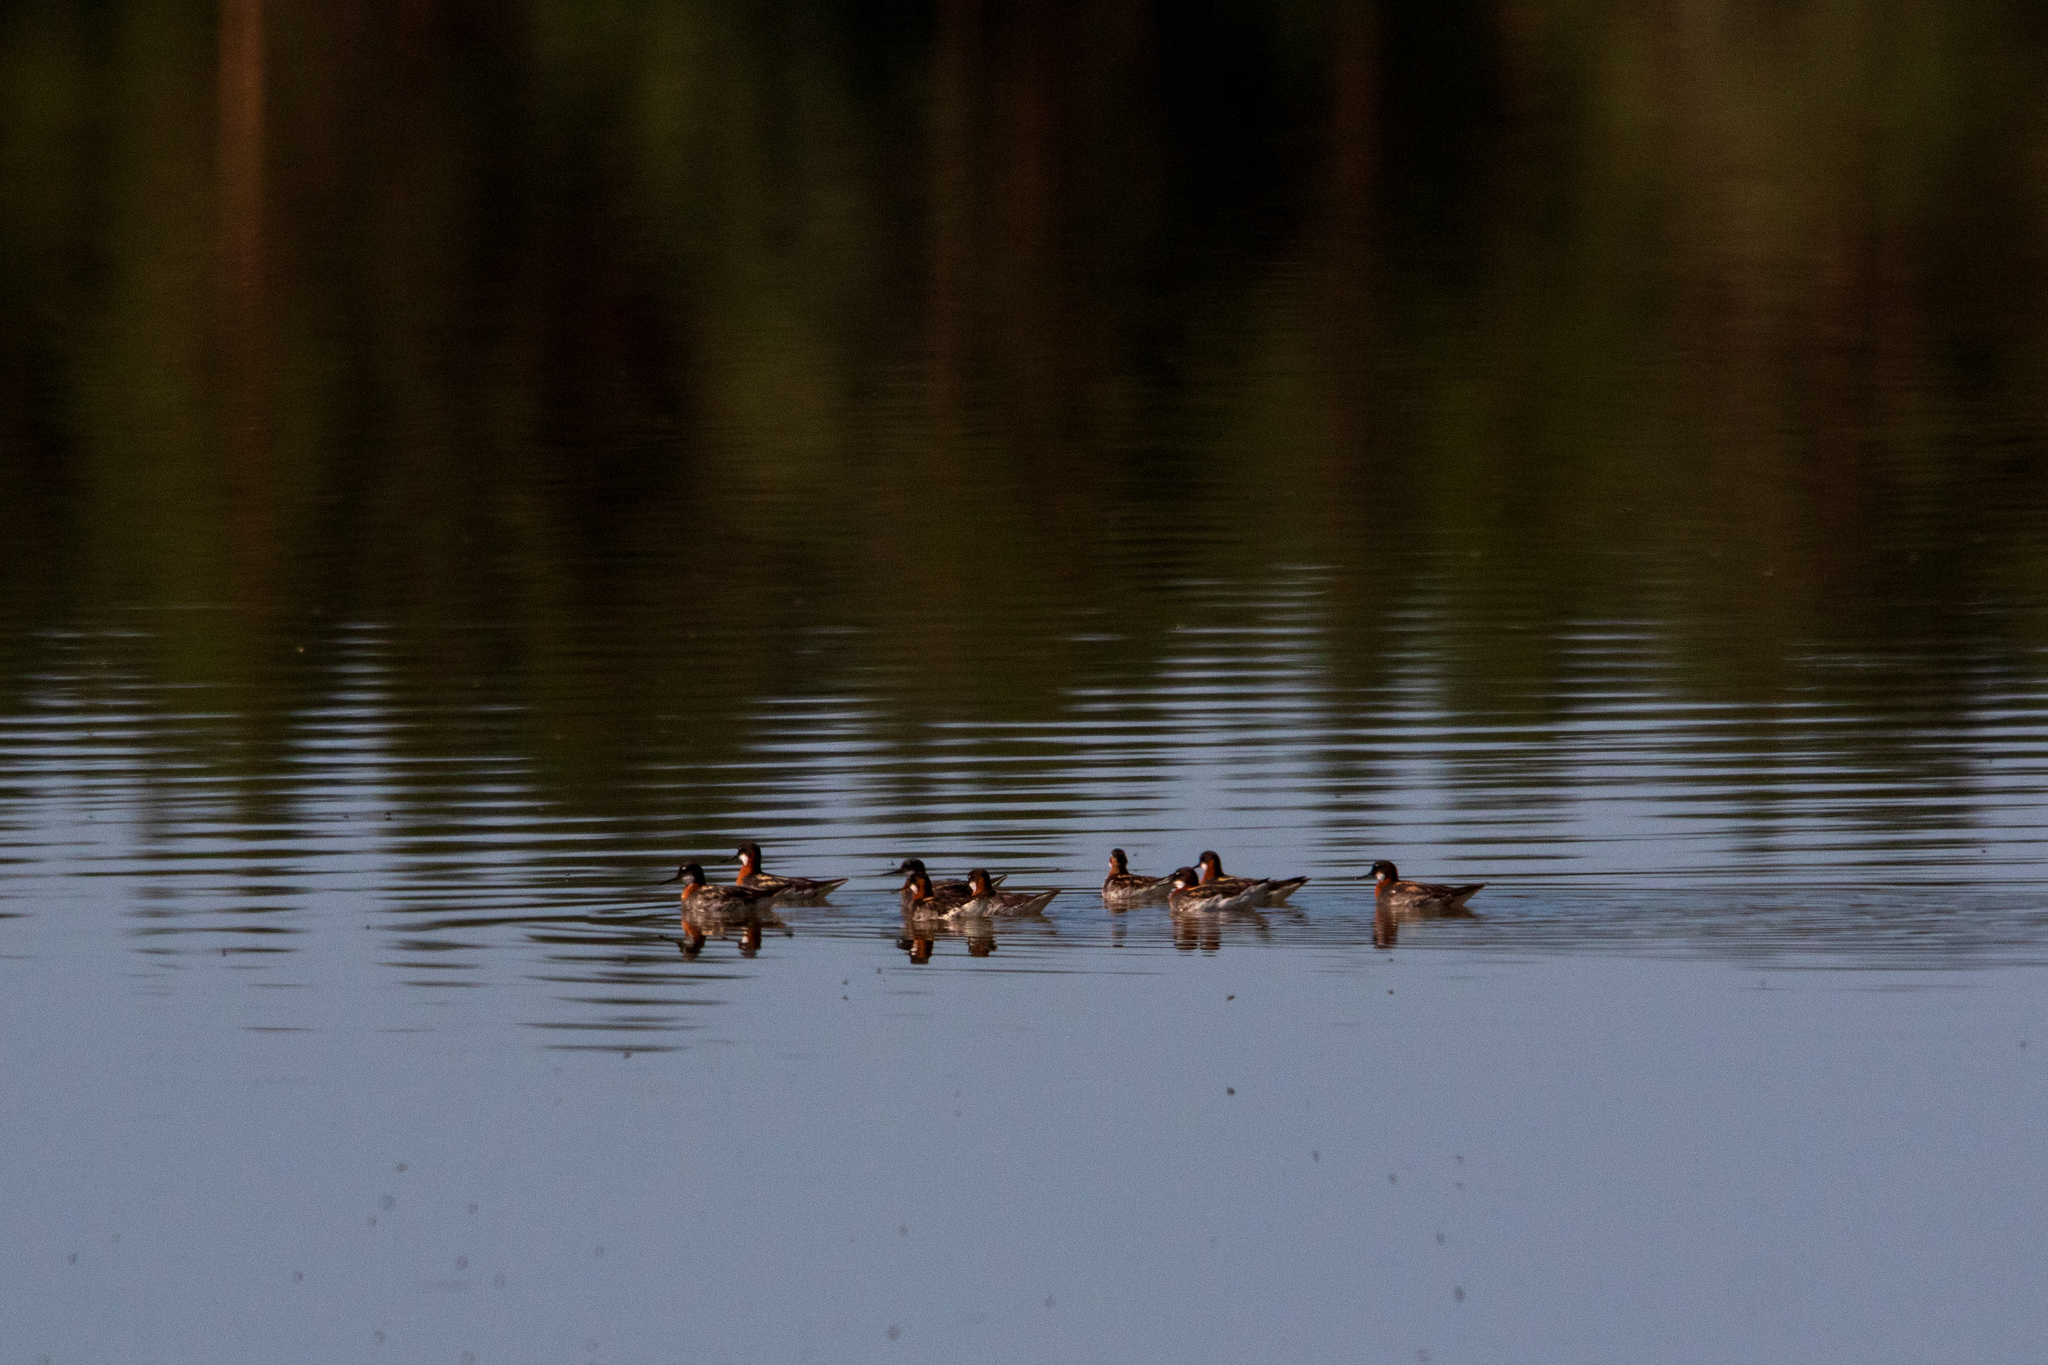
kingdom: Animalia
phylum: Chordata
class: Aves
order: Charadriiformes
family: Scolopacidae
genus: Phalaropus
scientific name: Phalaropus lobatus
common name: Red-necked phalarope
